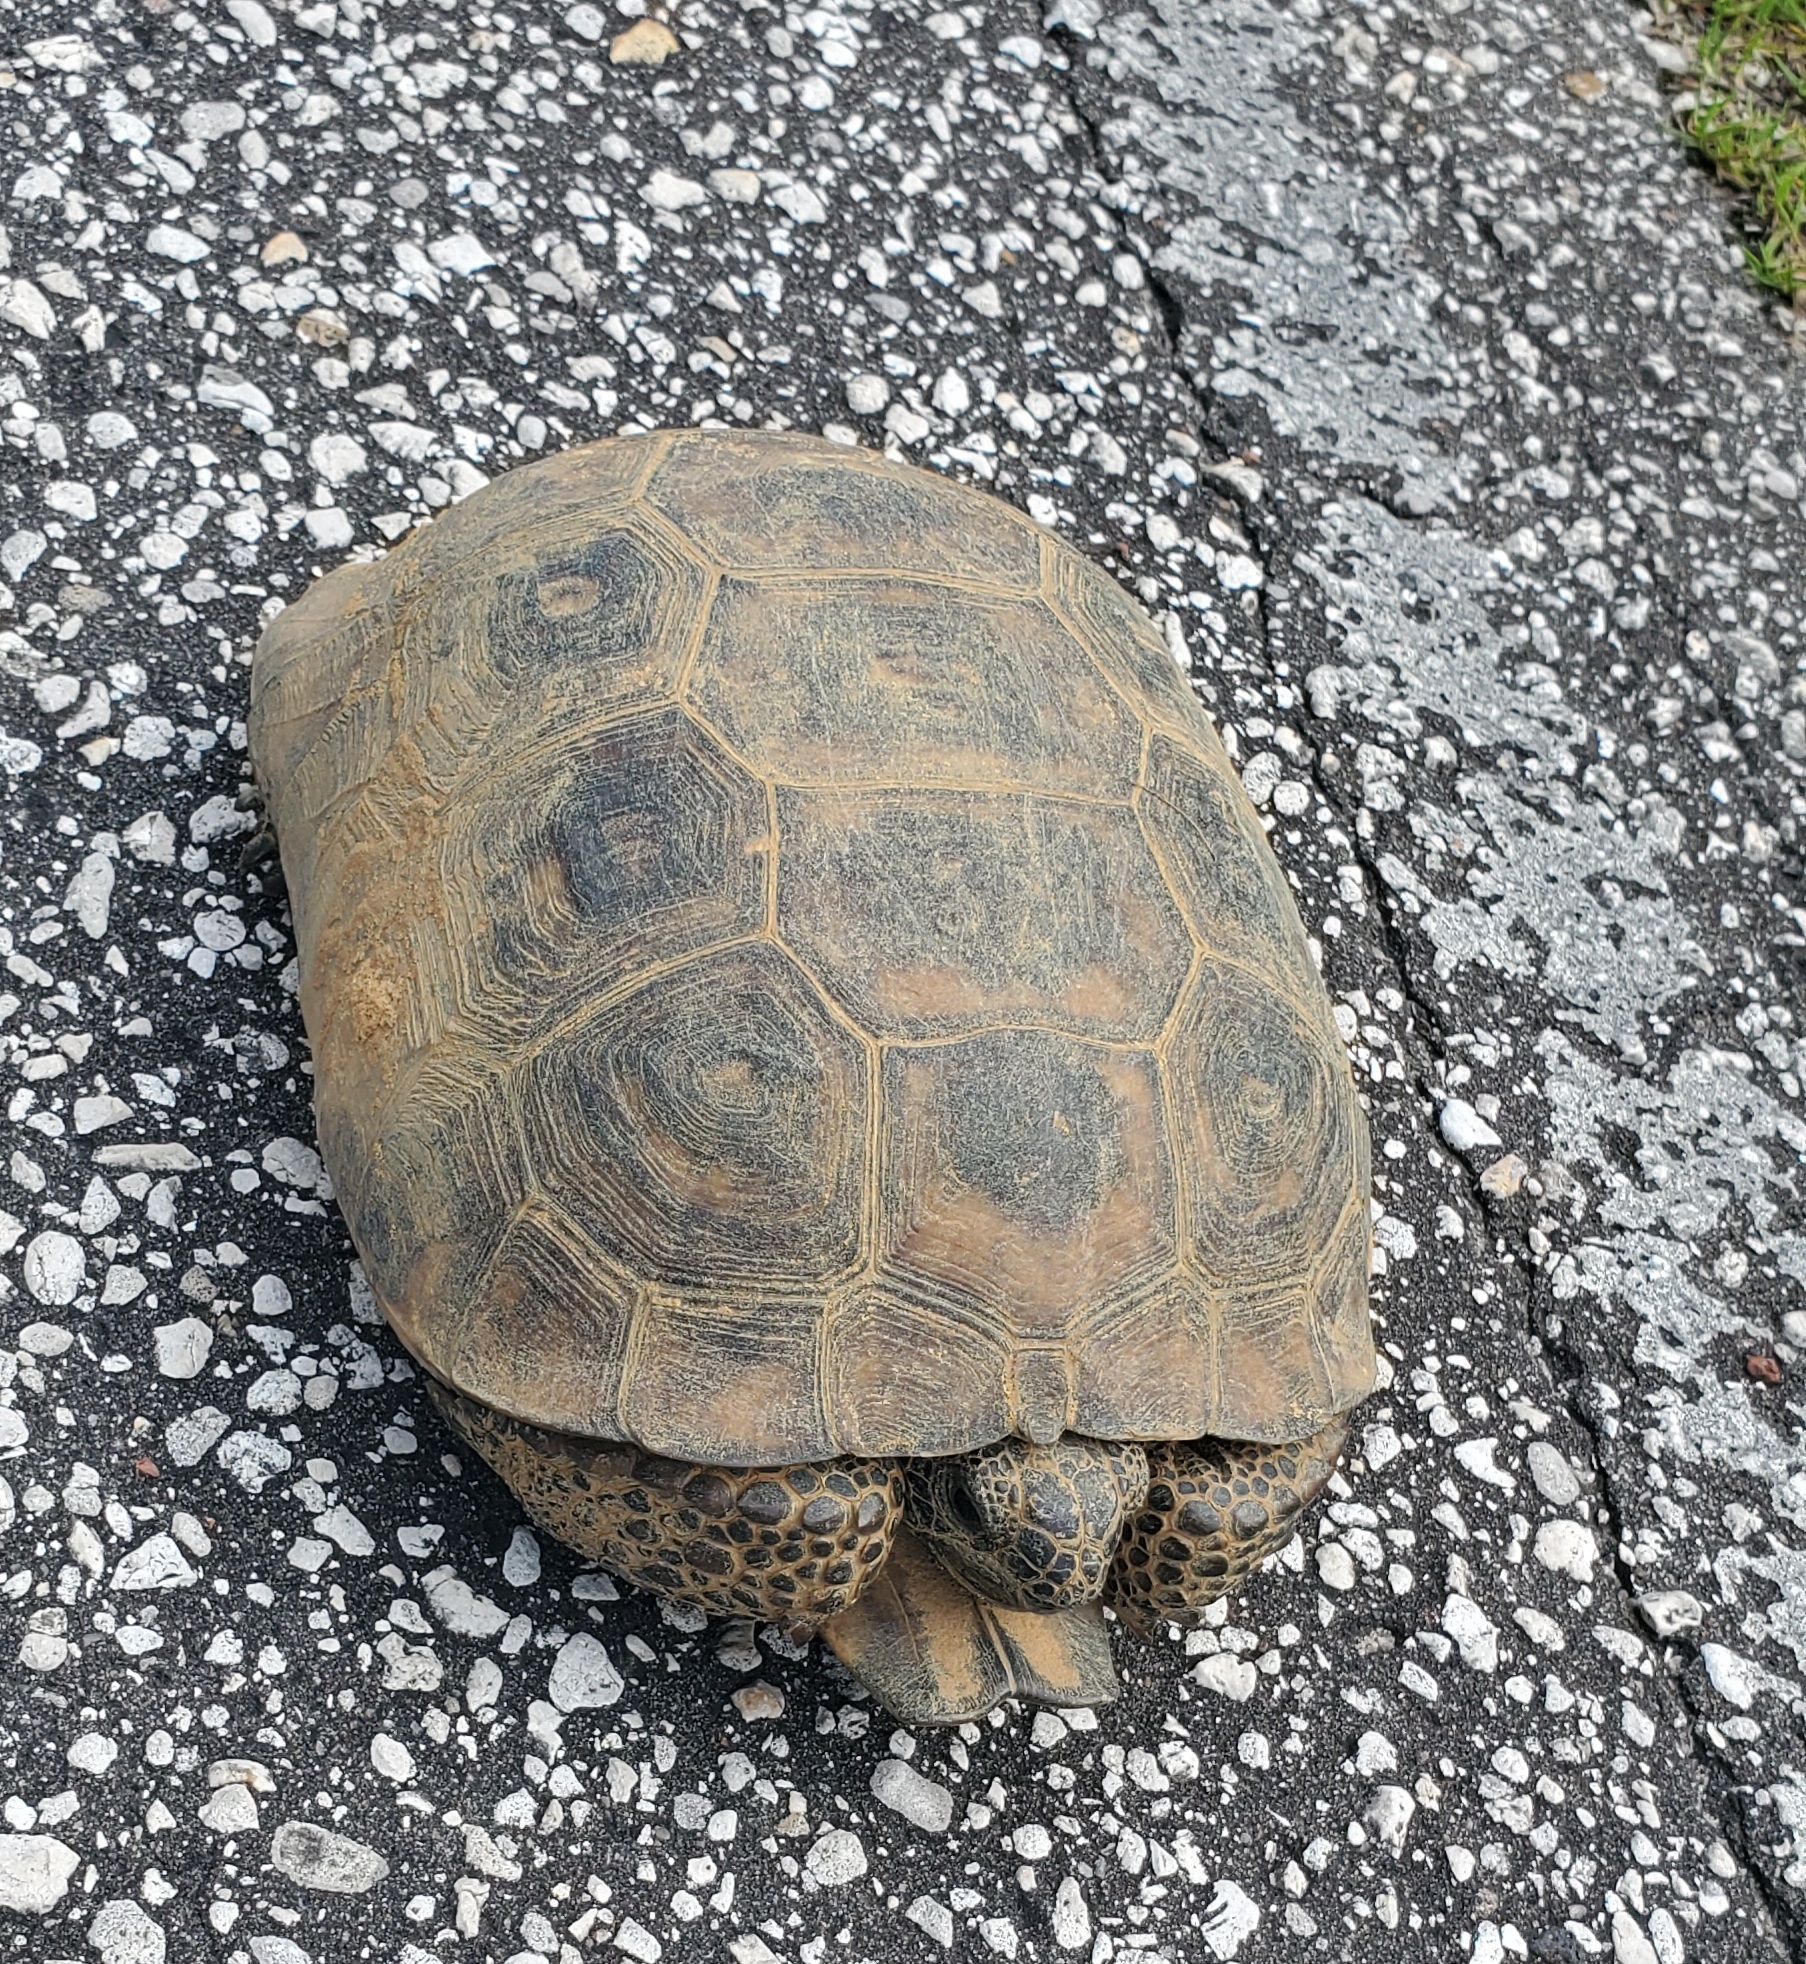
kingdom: Animalia
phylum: Chordata
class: Testudines
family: Testudinidae
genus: Gopherus
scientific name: Gopherus polyphemus
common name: Florida gopher tortoise
